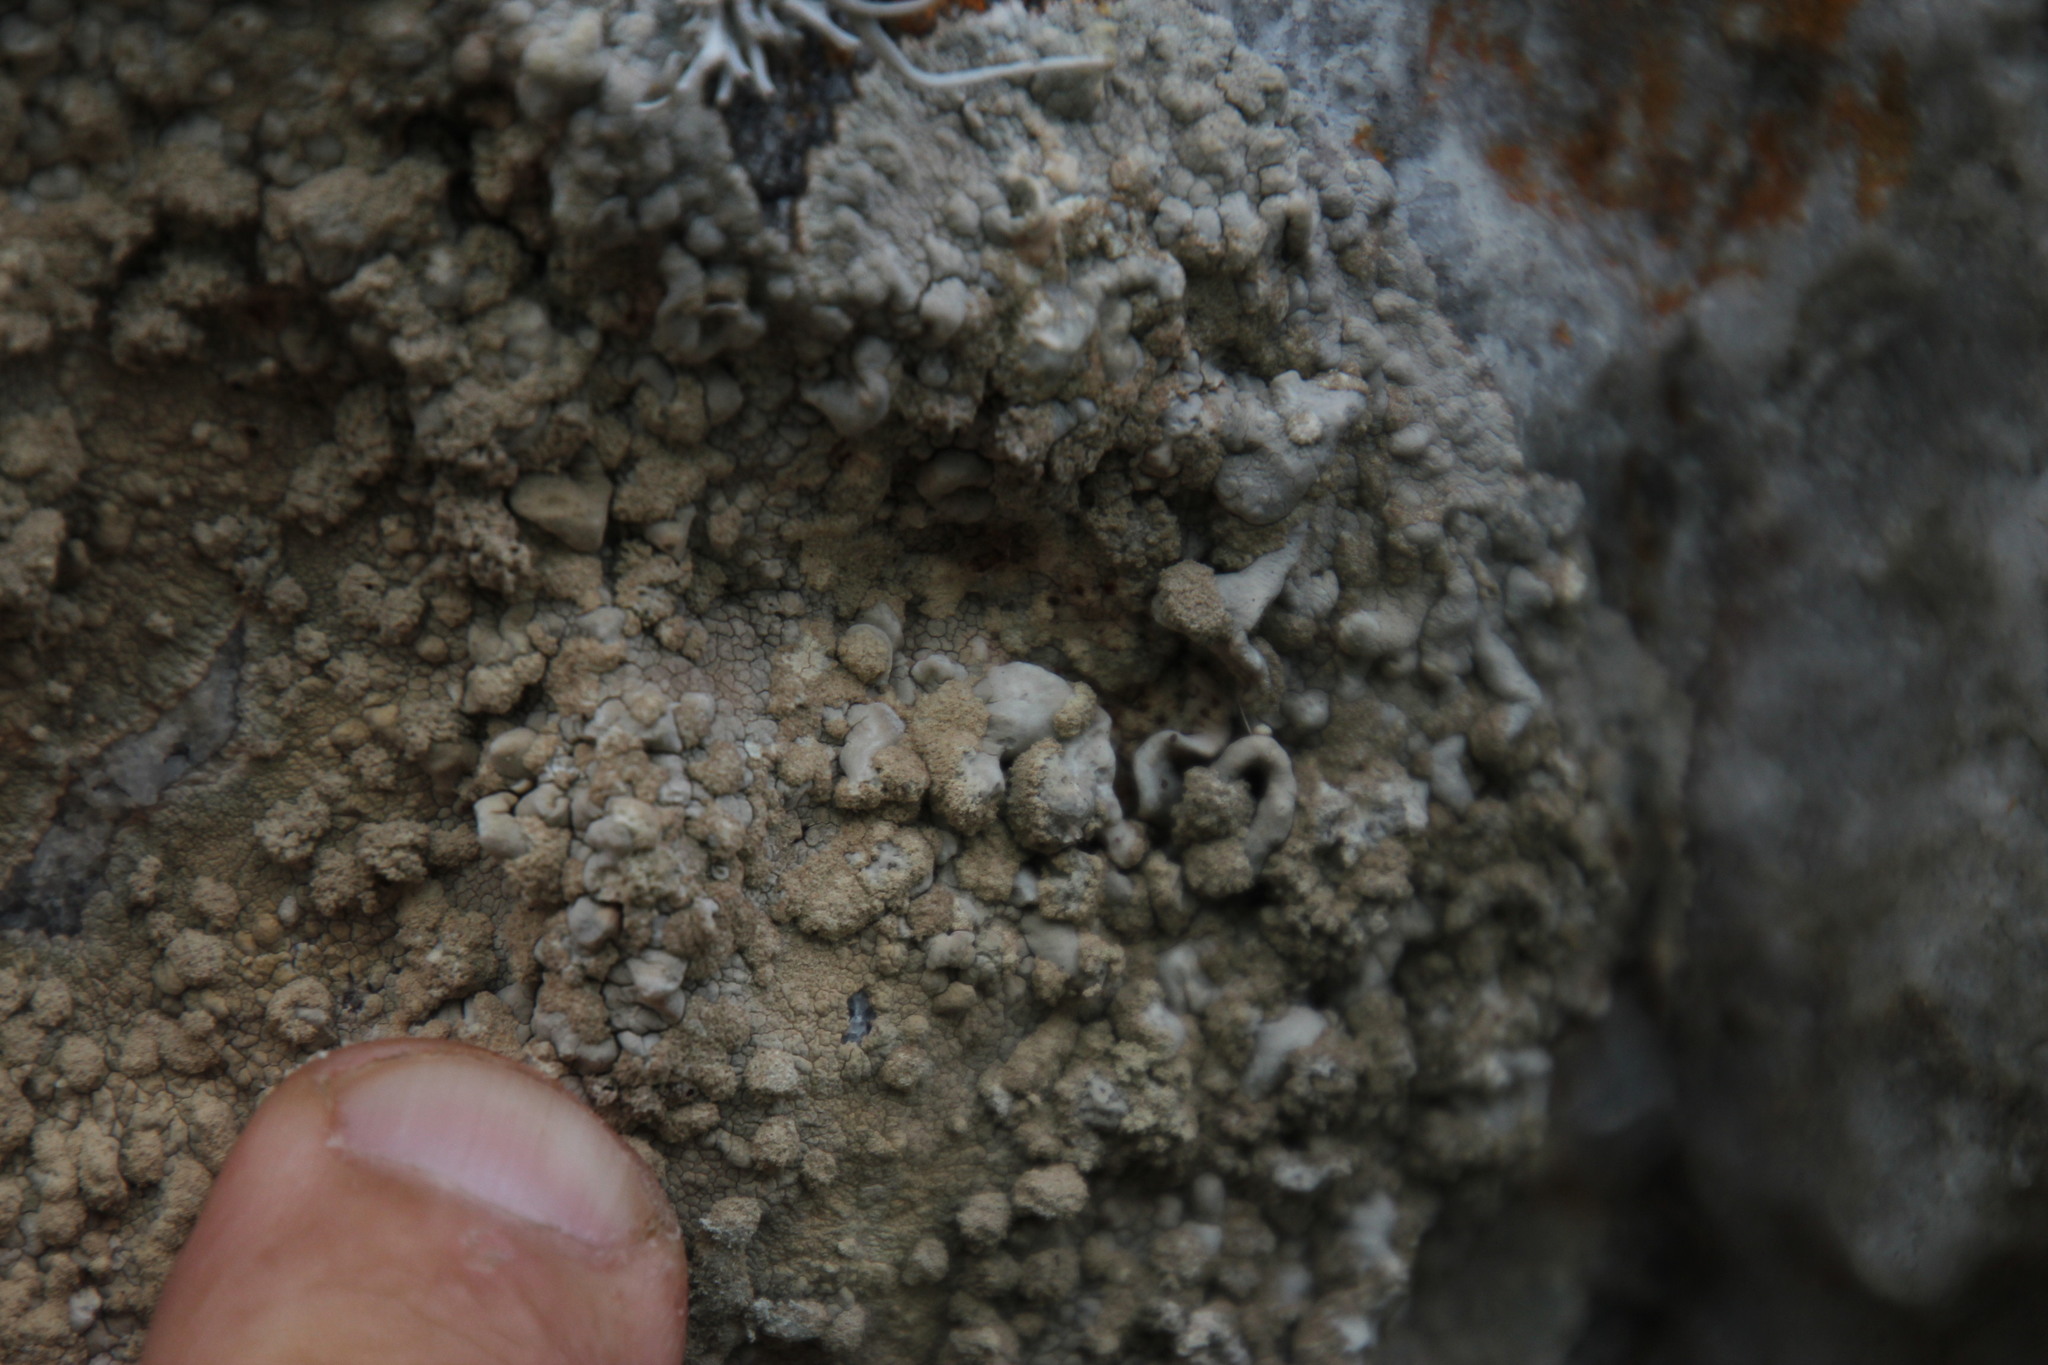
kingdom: Fungi
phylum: Ascomycota
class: Arthoniomycetes
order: Arthoniales
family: Roccellaceae
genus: Roccellina
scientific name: Roccellina capensis
